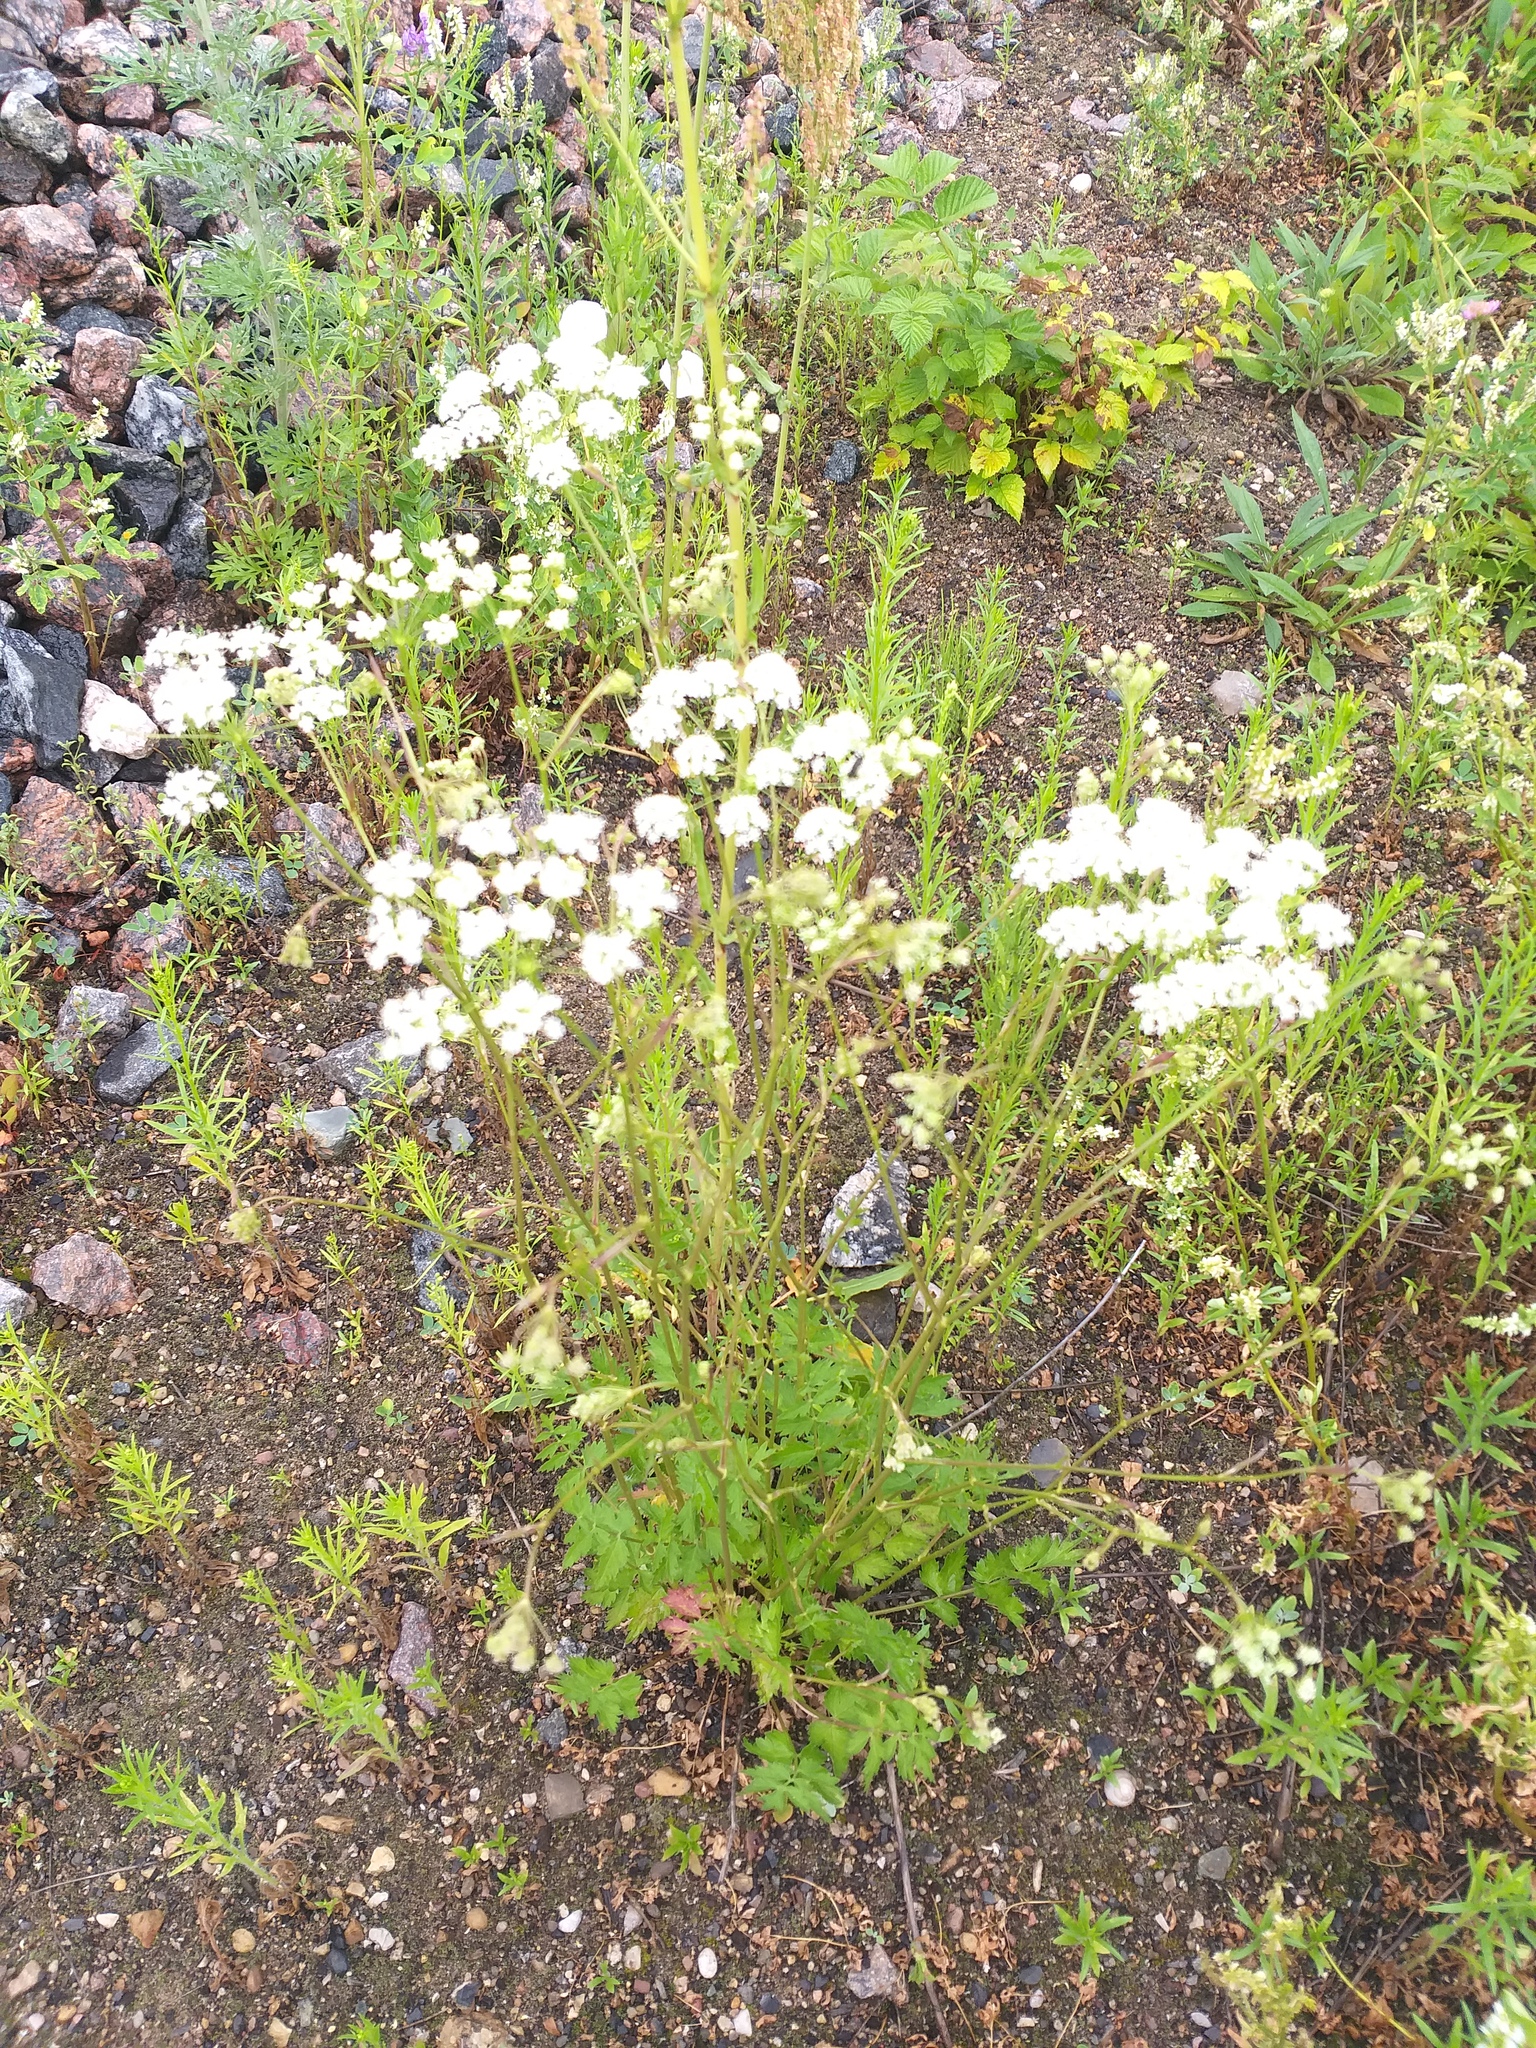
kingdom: Plantae
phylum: Tracheophyta
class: Magnoliopsida
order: Apiales
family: Apiaceae
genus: Pimpinella
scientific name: Pimpinella saxifraga
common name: Burnet-saxifrage
